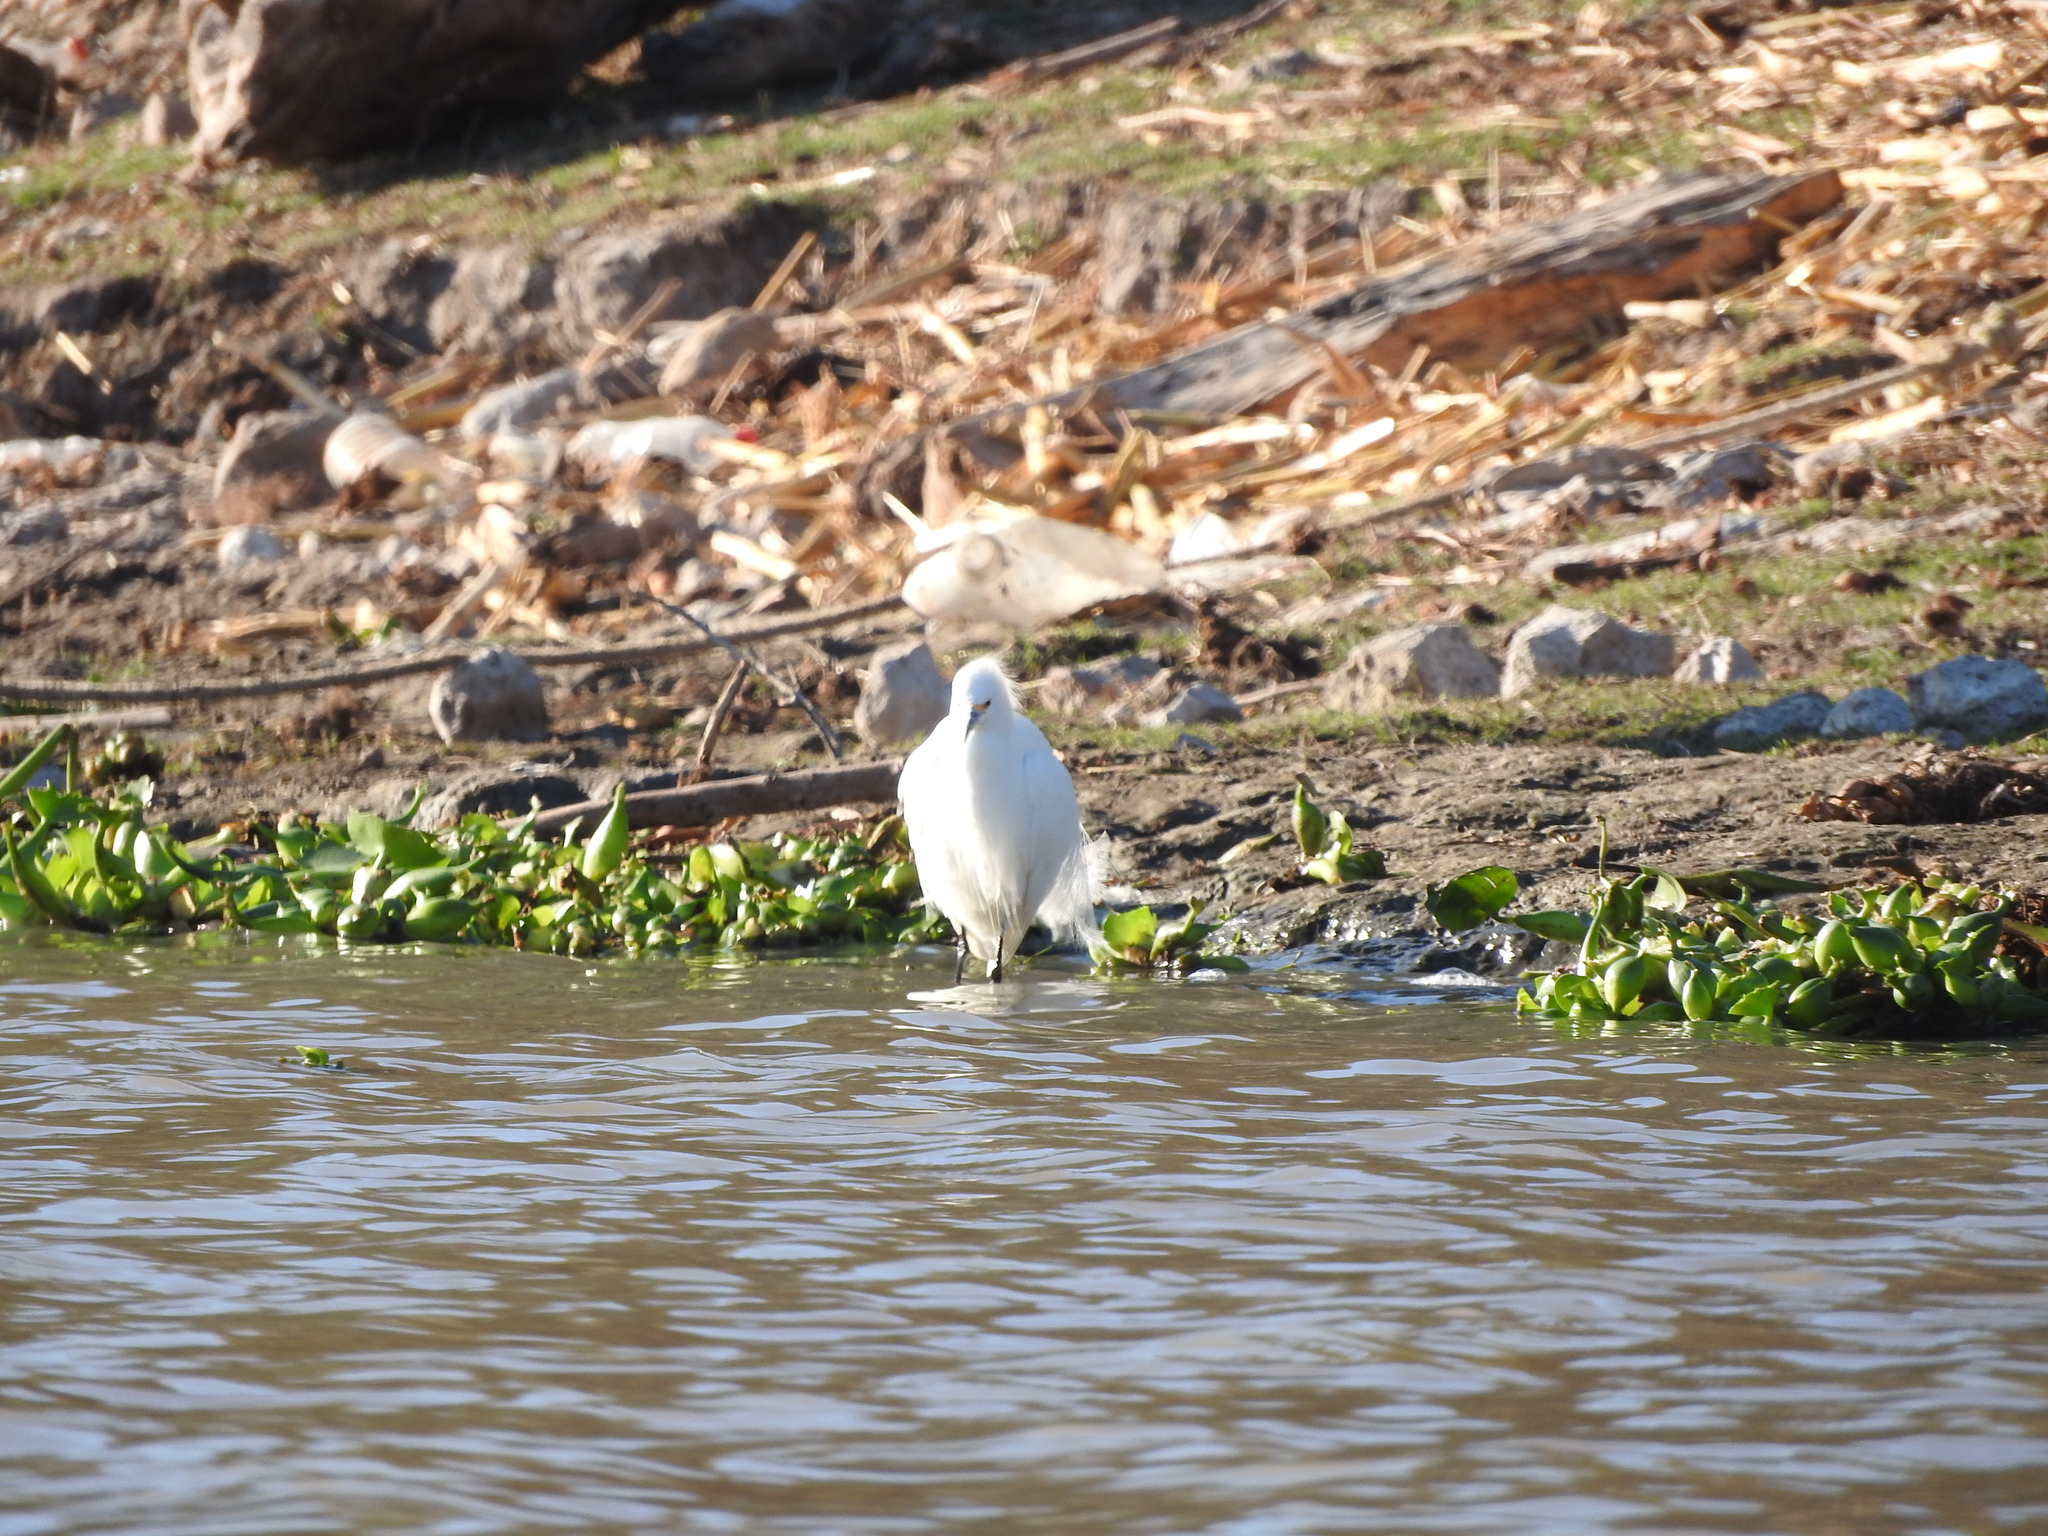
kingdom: Animalia
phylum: Chordata
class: Aves
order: Pelecaniformes
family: Ardeidae
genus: Egretta
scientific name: Egretta thula
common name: Snowy egret
